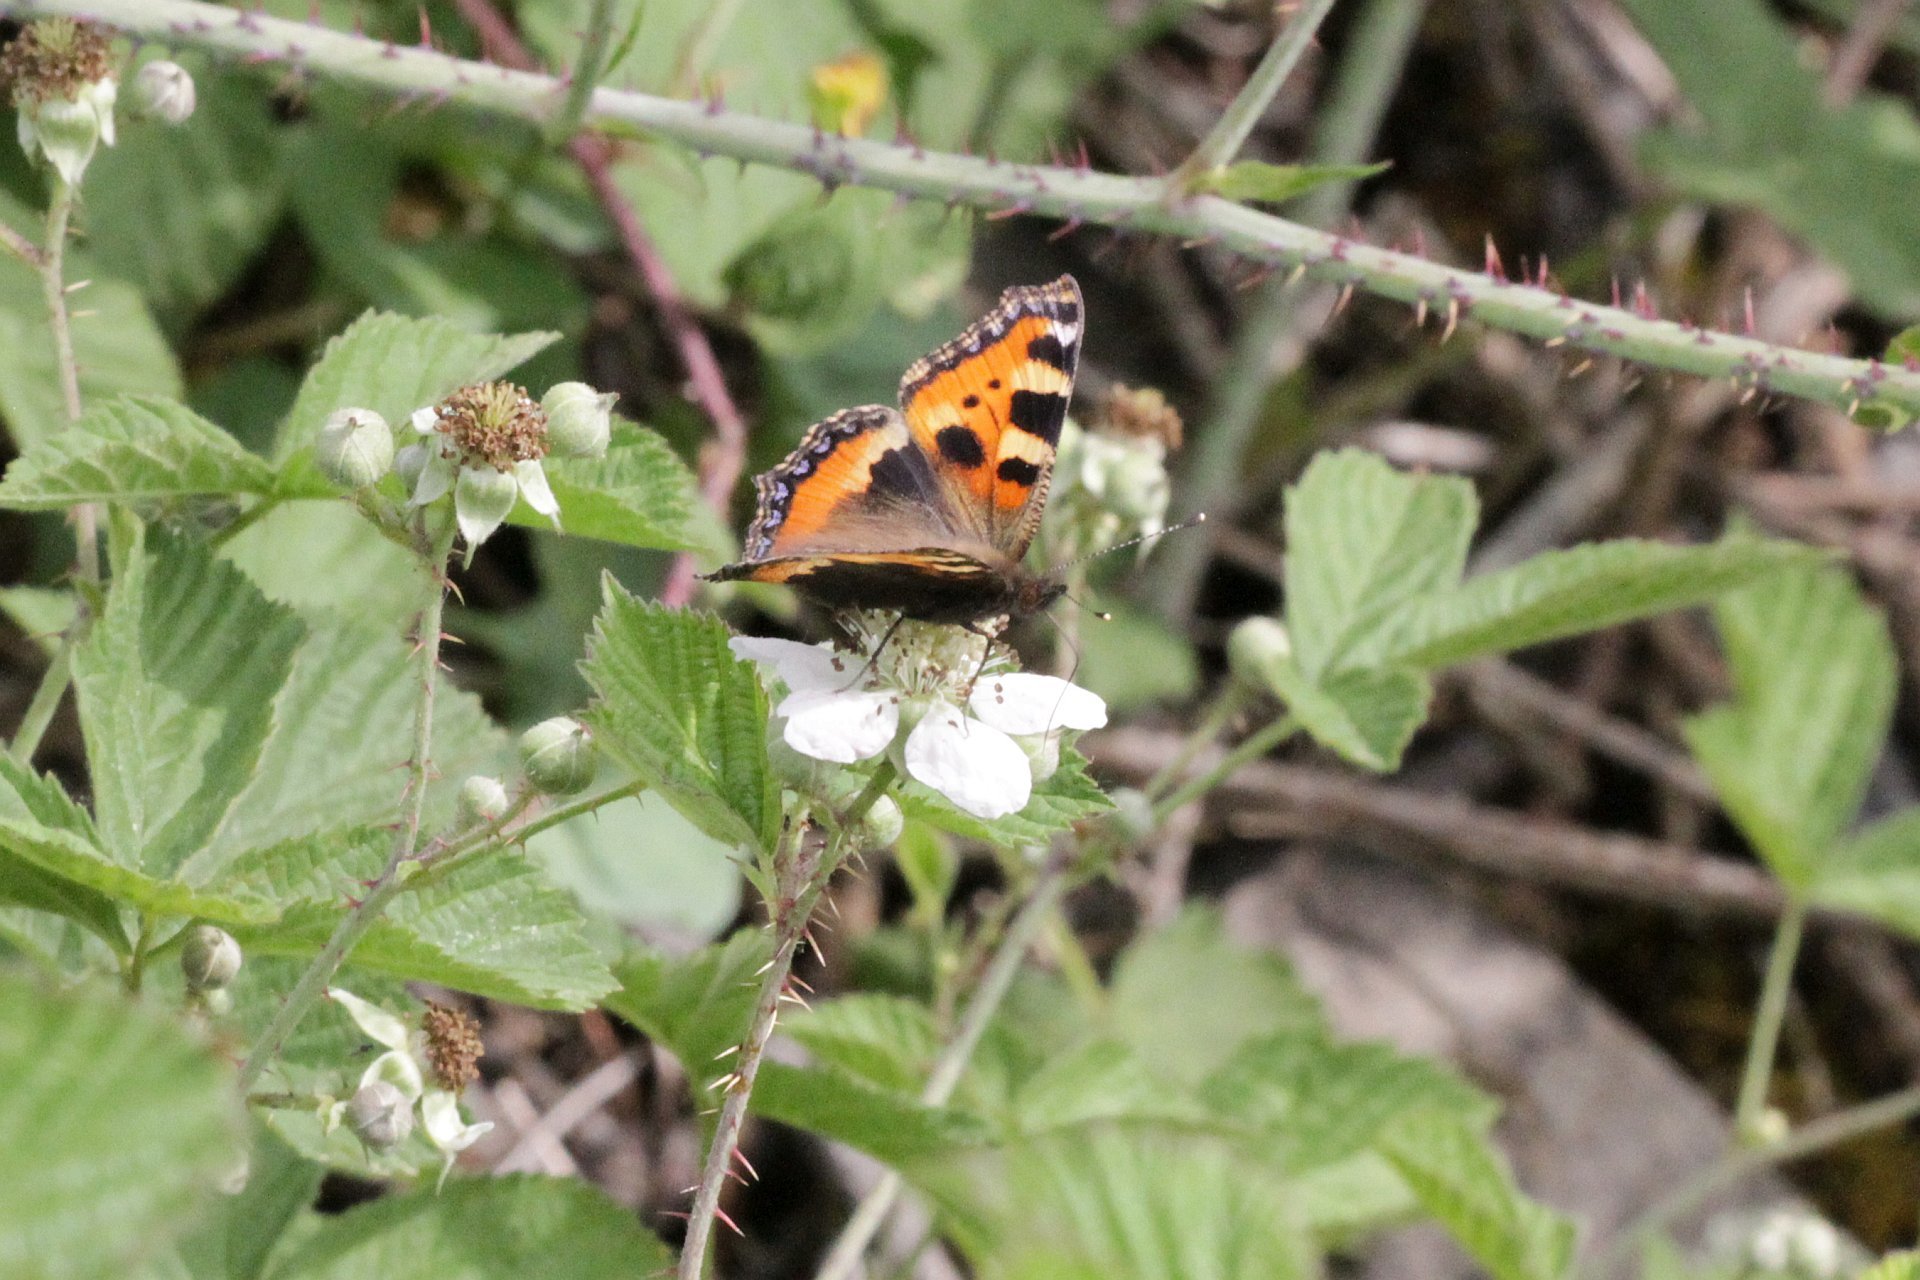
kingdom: Animalia
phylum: Arthropoda
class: Insecta
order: Lepidoptera
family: Nymphalidae
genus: Aglais
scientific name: Aglais urticae
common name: Small tortoiseshell
